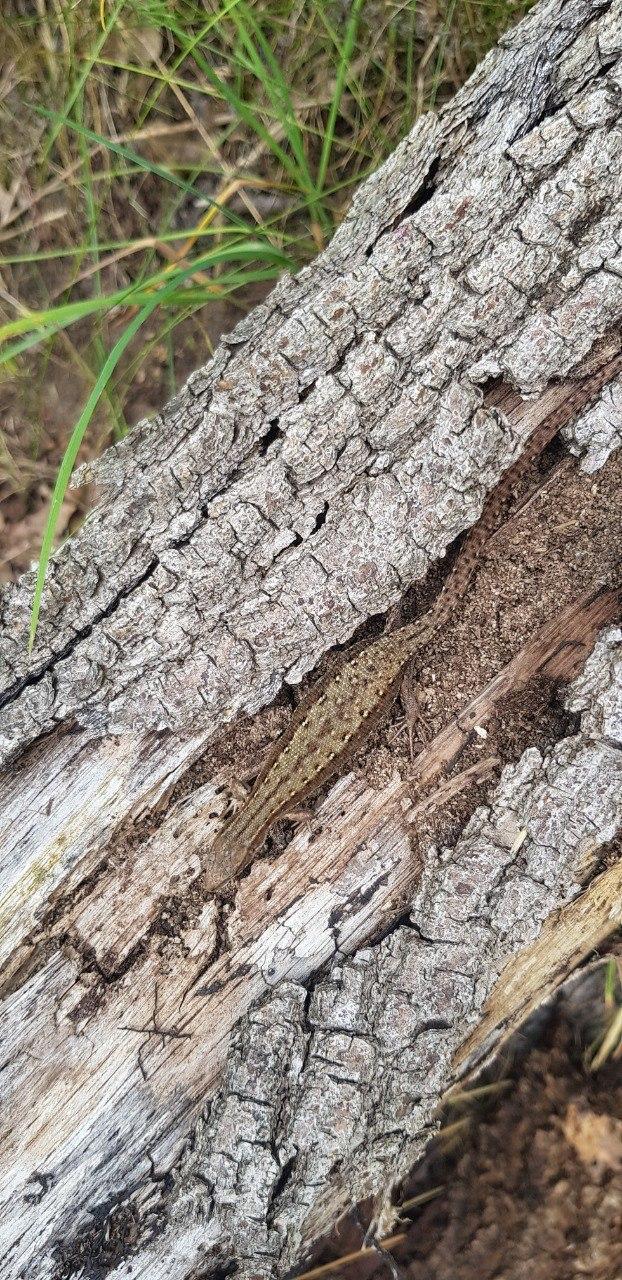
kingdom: Animalia
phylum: Chordata
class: Squamata
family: Lacertidae
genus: Zootoca
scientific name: Zootoca vivipara
